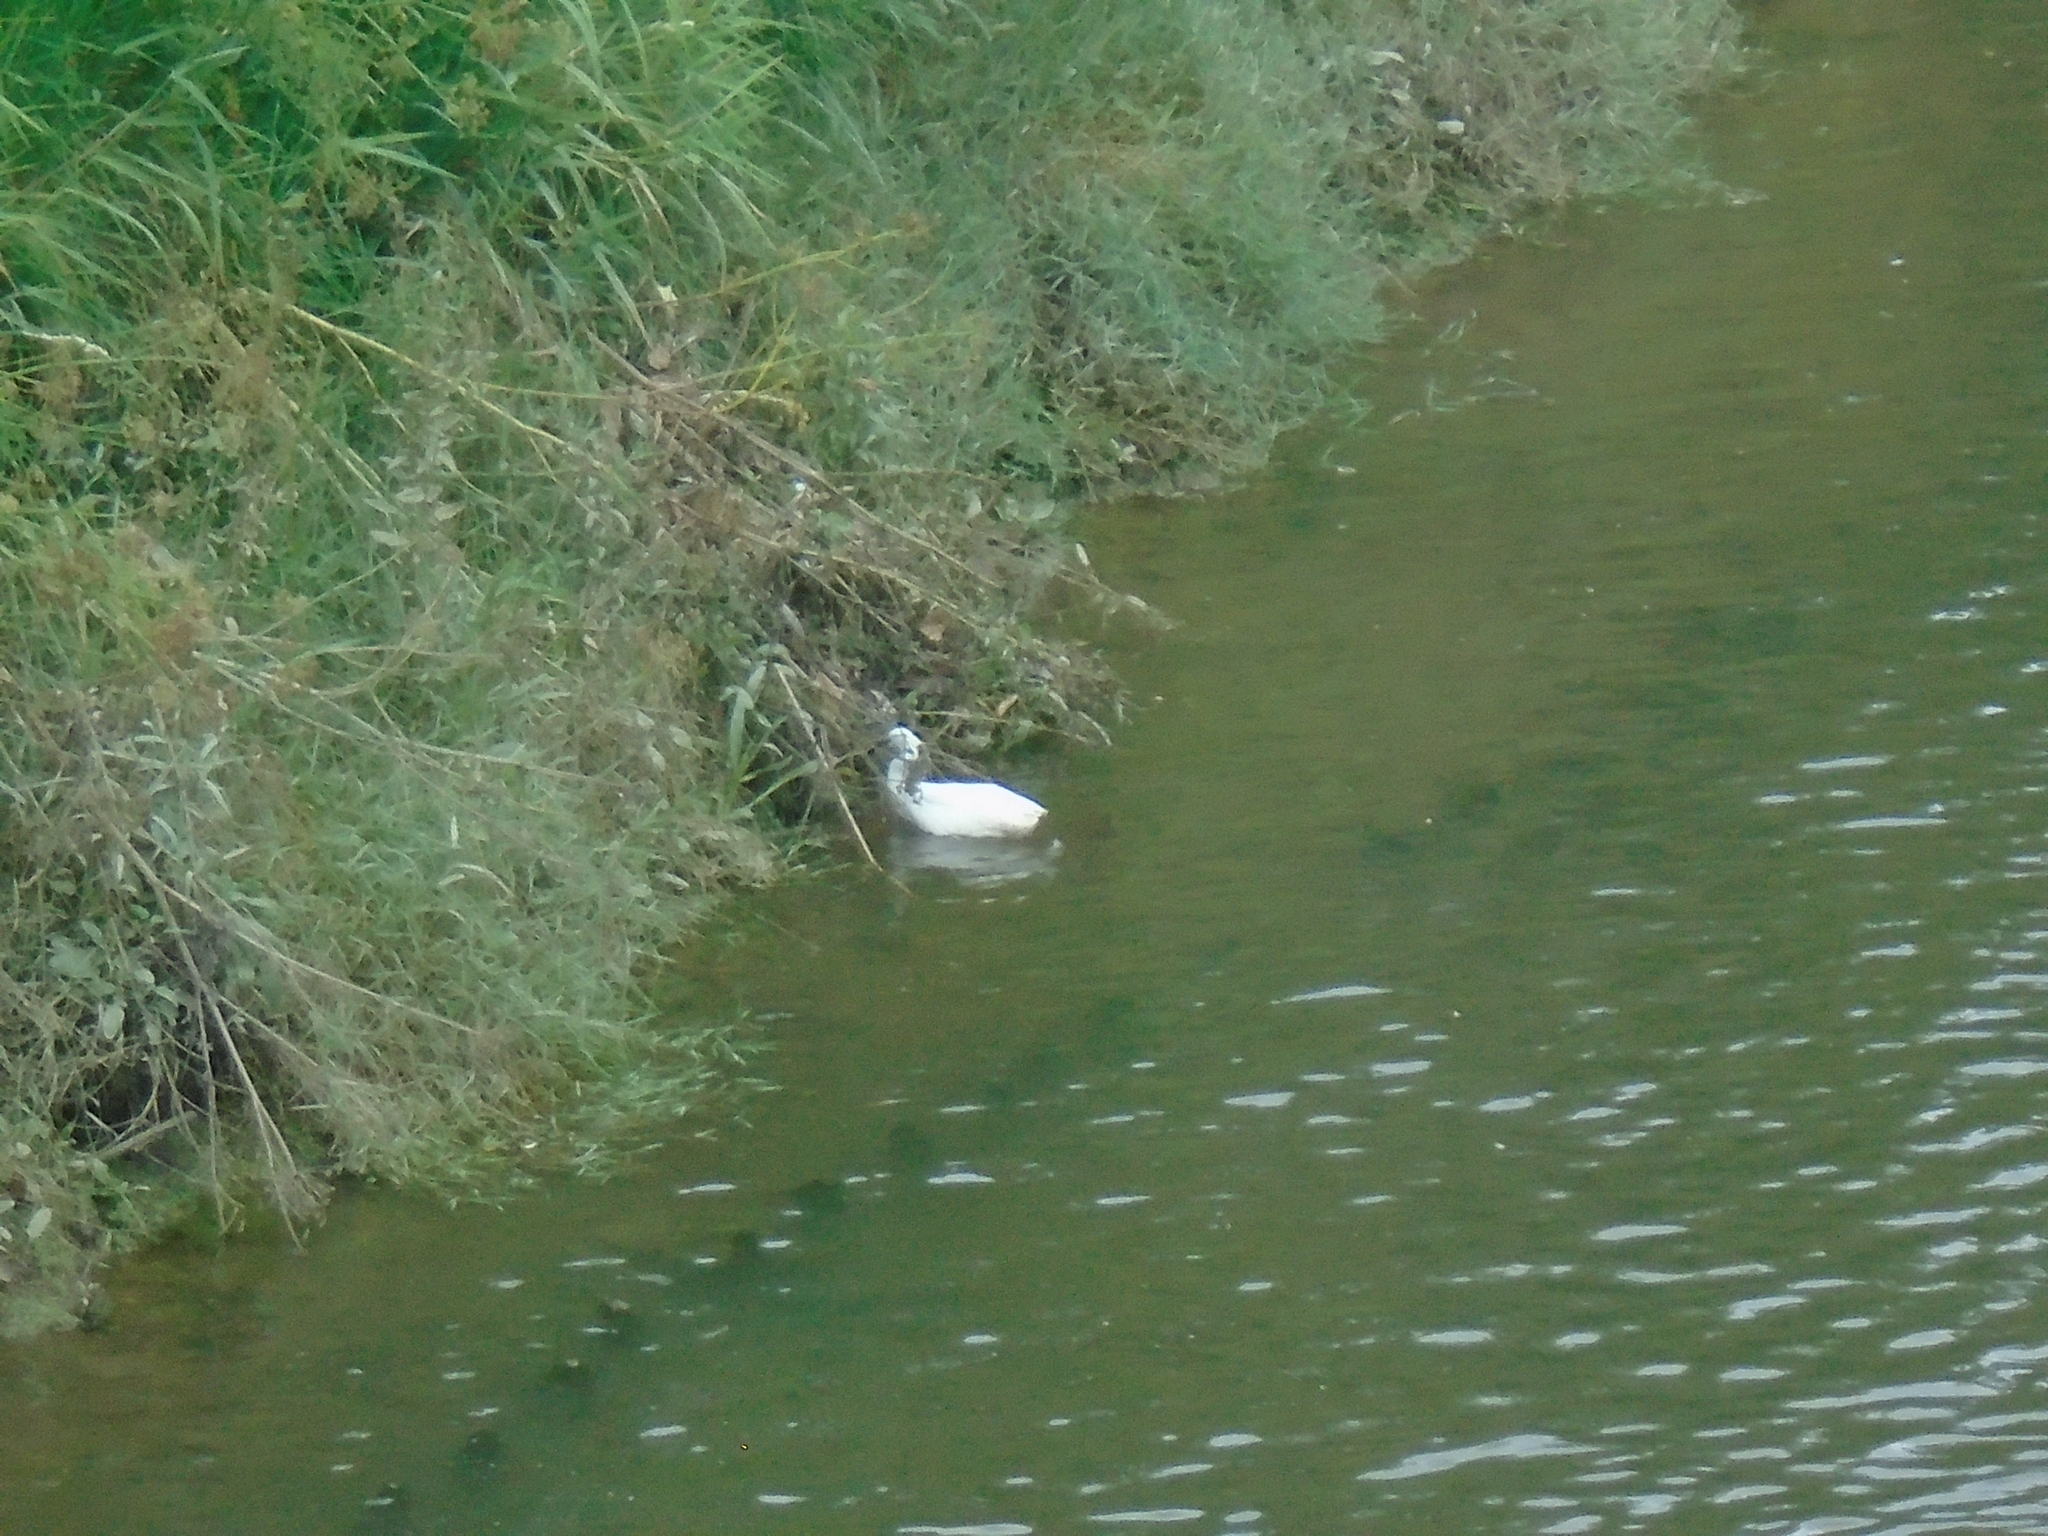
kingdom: Animalia
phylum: Chordata
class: Aves
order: Pelecaniformes
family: Ardeidae
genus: Egretta
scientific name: Egretta garzetta
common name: Little egret
